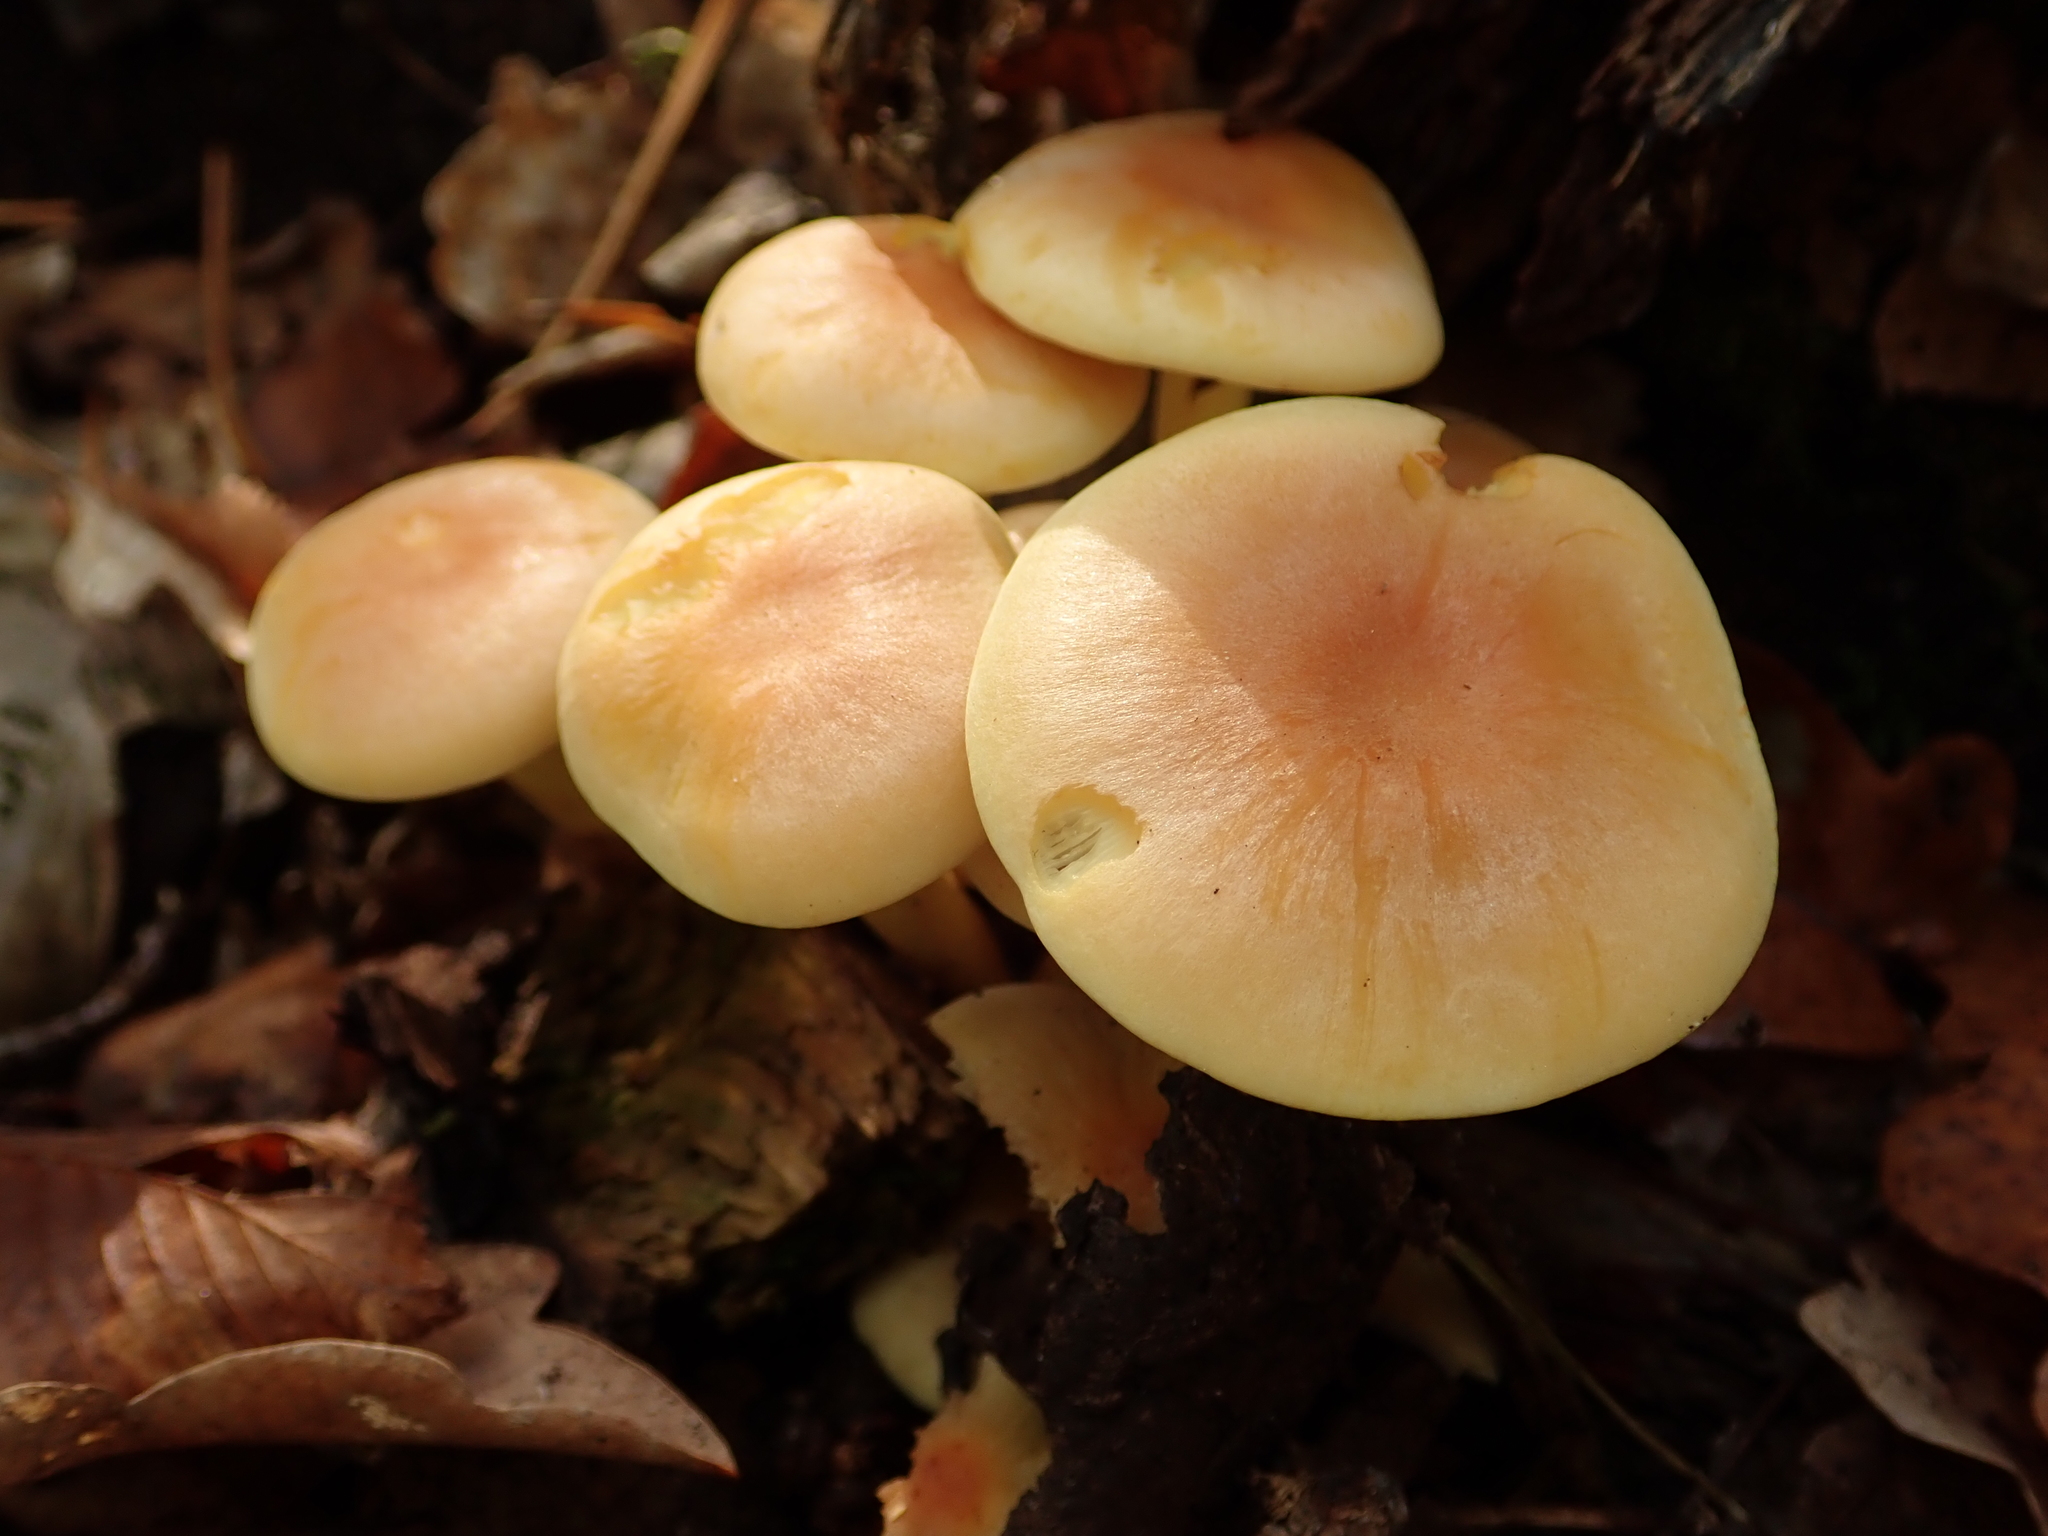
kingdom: Fungi
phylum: Basidiomycota
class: Agaricomycetes
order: Agaricales
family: Strophariaceae
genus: Hypholoma
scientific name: Hypholoma fasciculare
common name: Sulphur tuft
